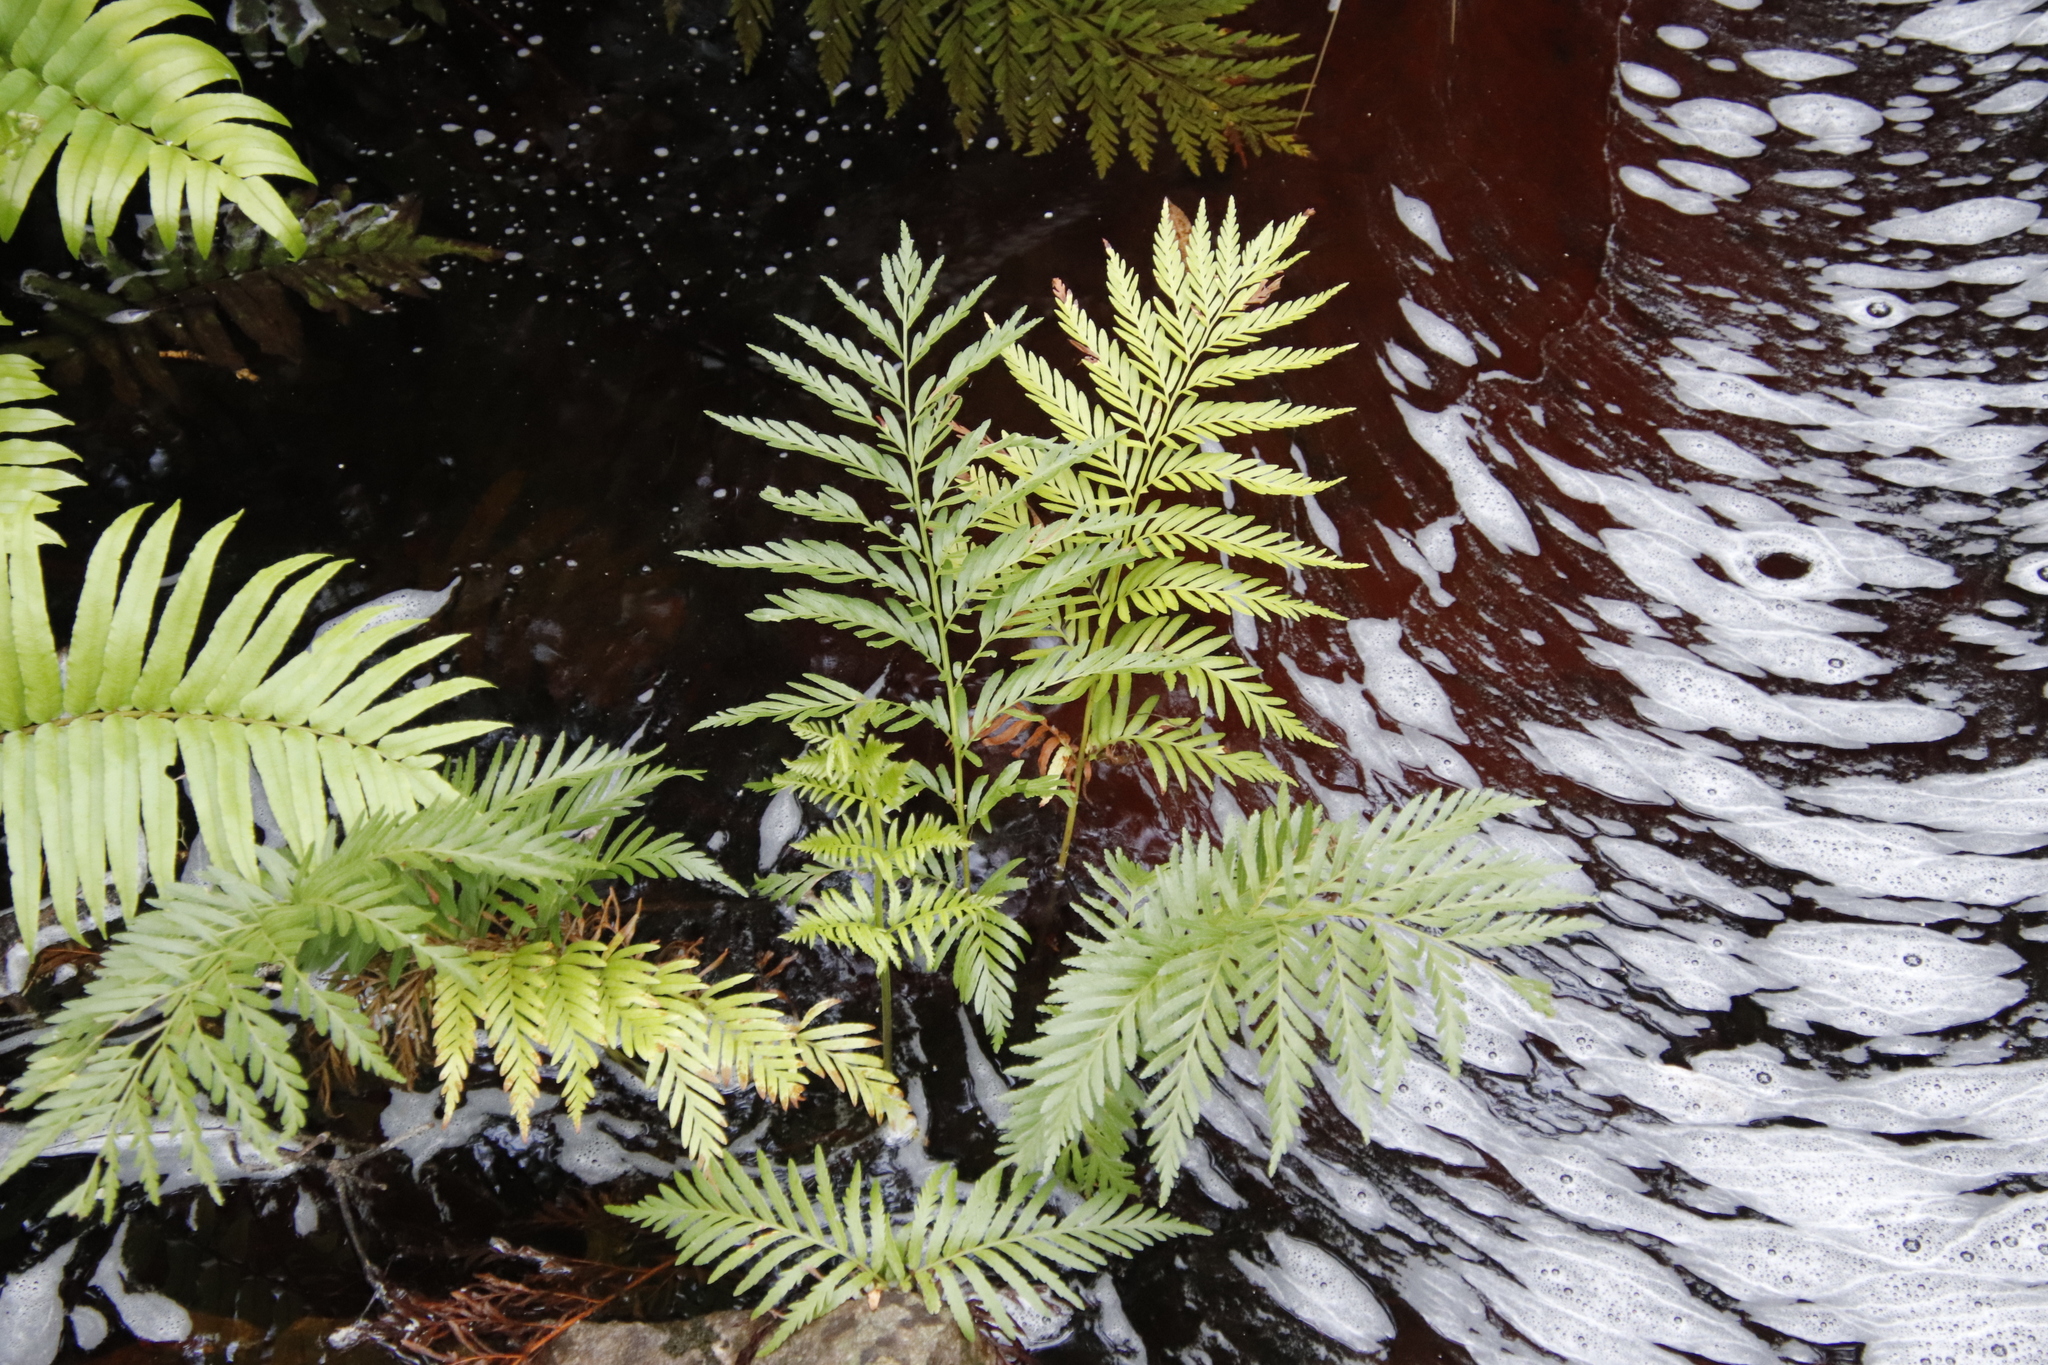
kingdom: Plantae
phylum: Tracheophyta
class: Polypodiopsida
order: Osmundales
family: Osmundaceae
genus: Todea
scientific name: Todea barbara
